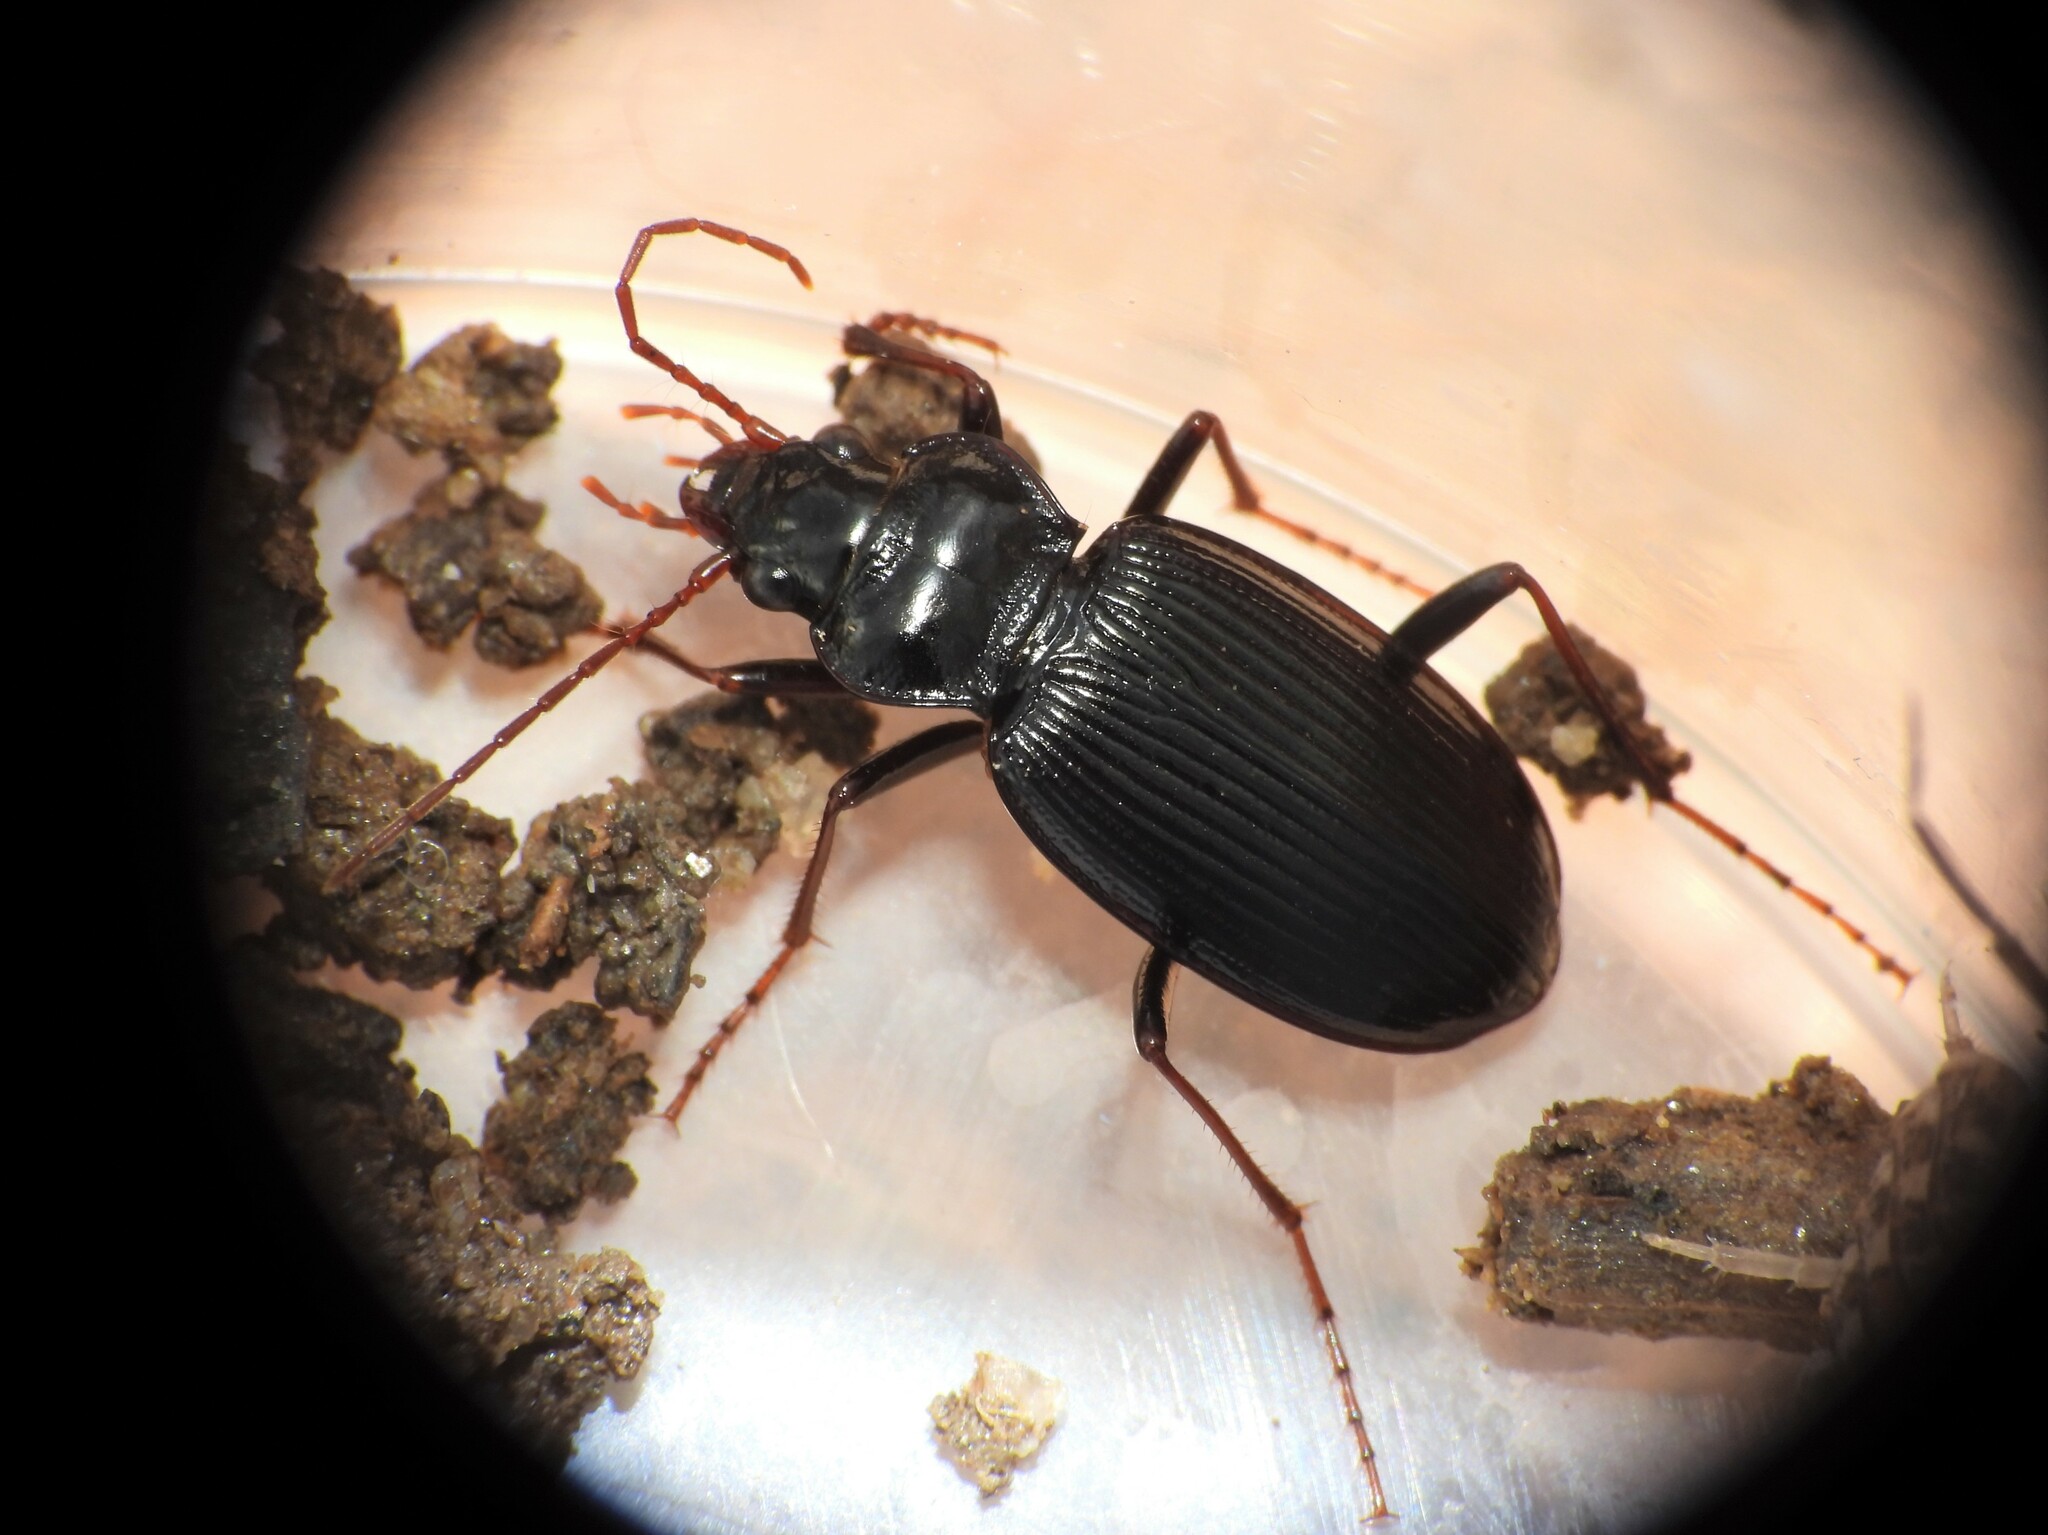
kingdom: Animalia
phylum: Arthropoda
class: Insecta
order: Coleoptera
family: Carabidae
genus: Nebria
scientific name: Nebria brevicollis
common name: Short-necked gazelle beetle
